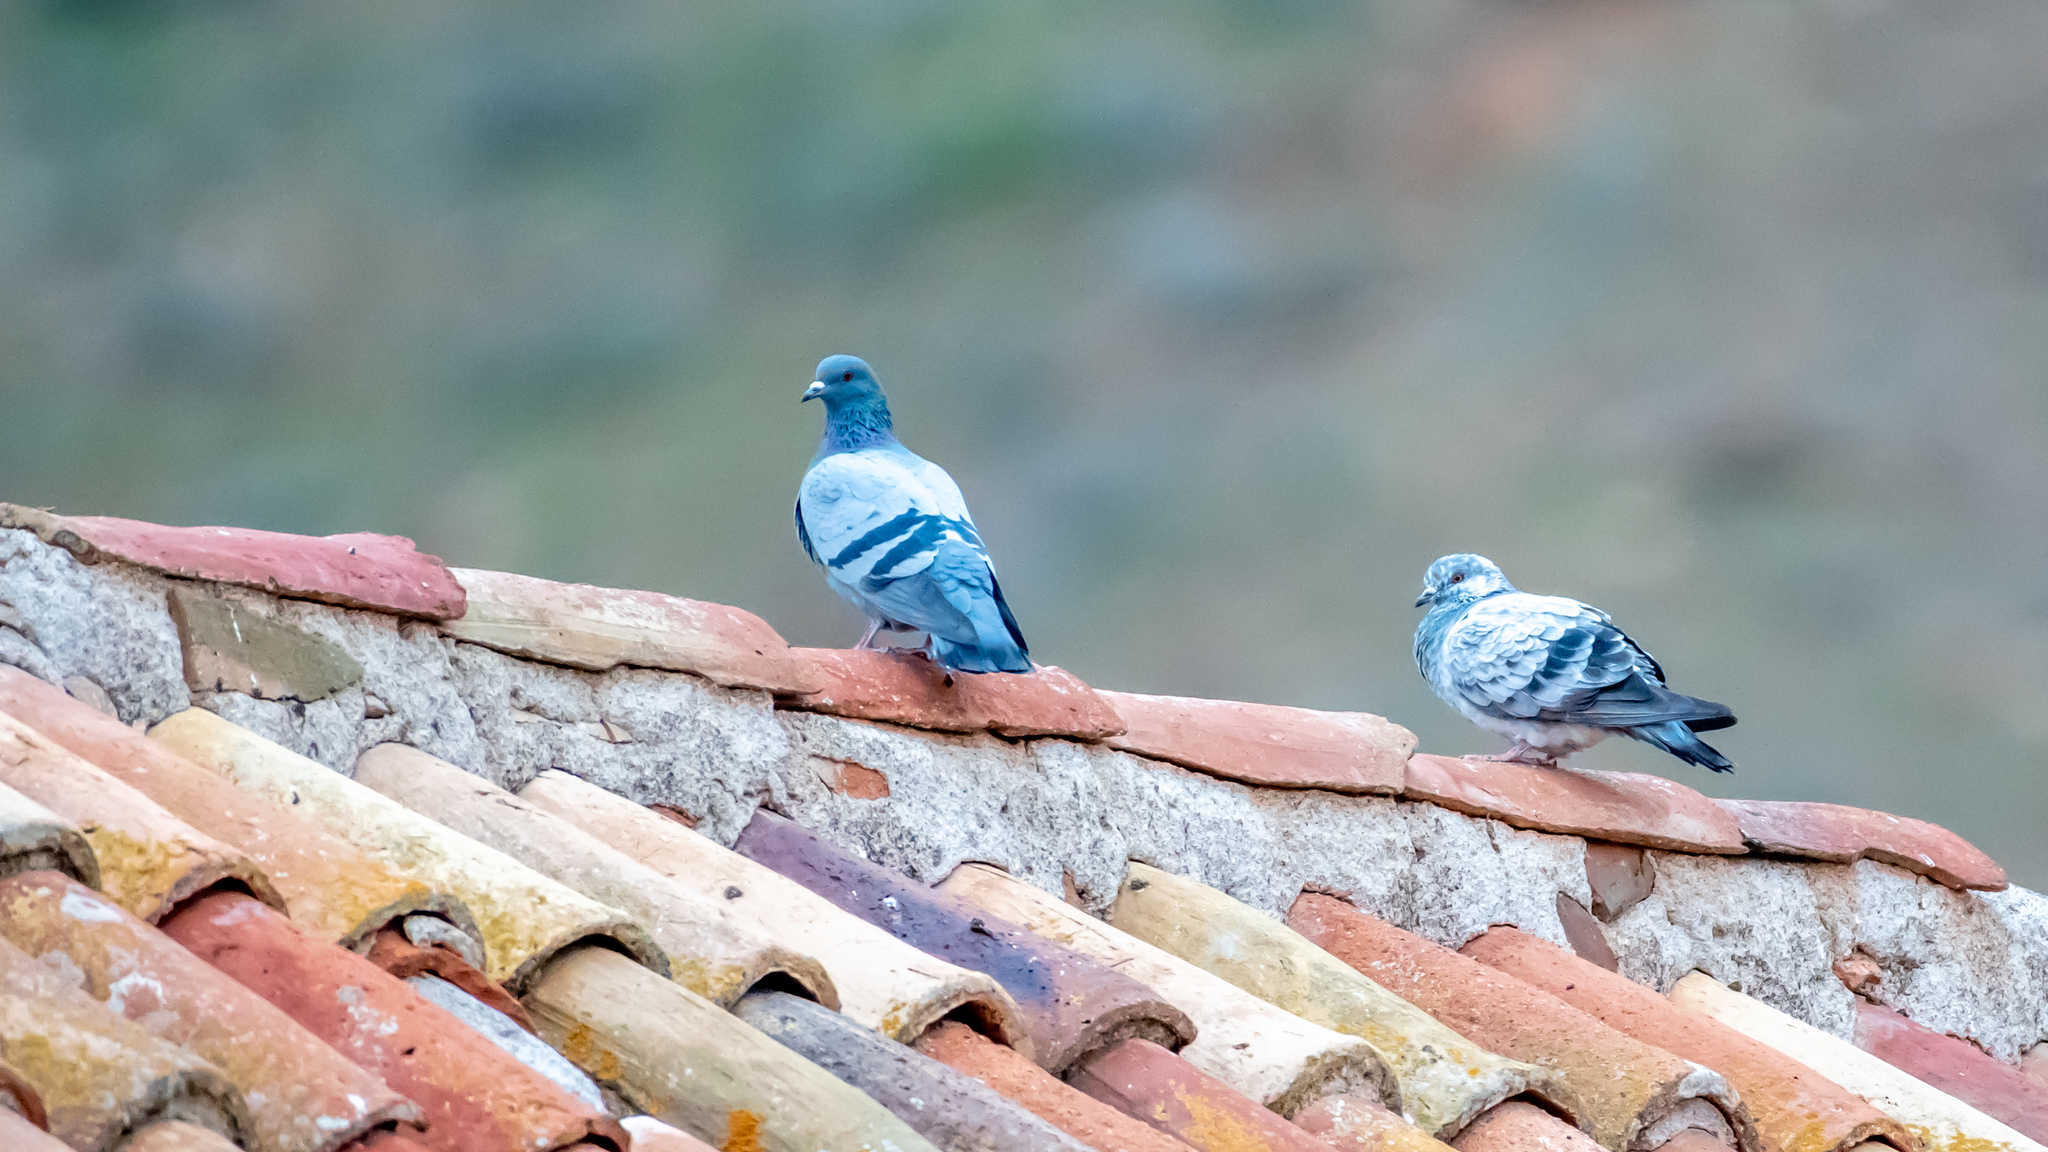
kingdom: Animalia
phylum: Chordata
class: Aves
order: Columbiformes
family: Columbidae
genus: Columba
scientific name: Columba livia
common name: Rock pigeon
